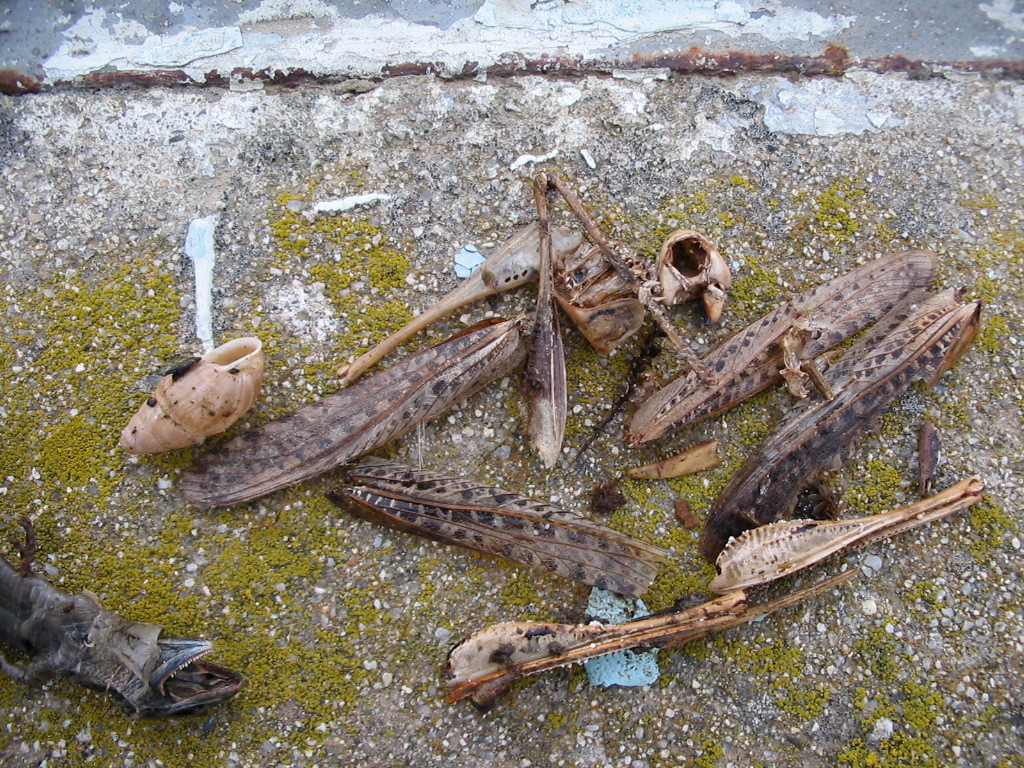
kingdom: Animalia
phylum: Arthropoda
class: Insecta
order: Orthoptera
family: Tettigoniidae
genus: Decticus
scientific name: Decticus albifrons
